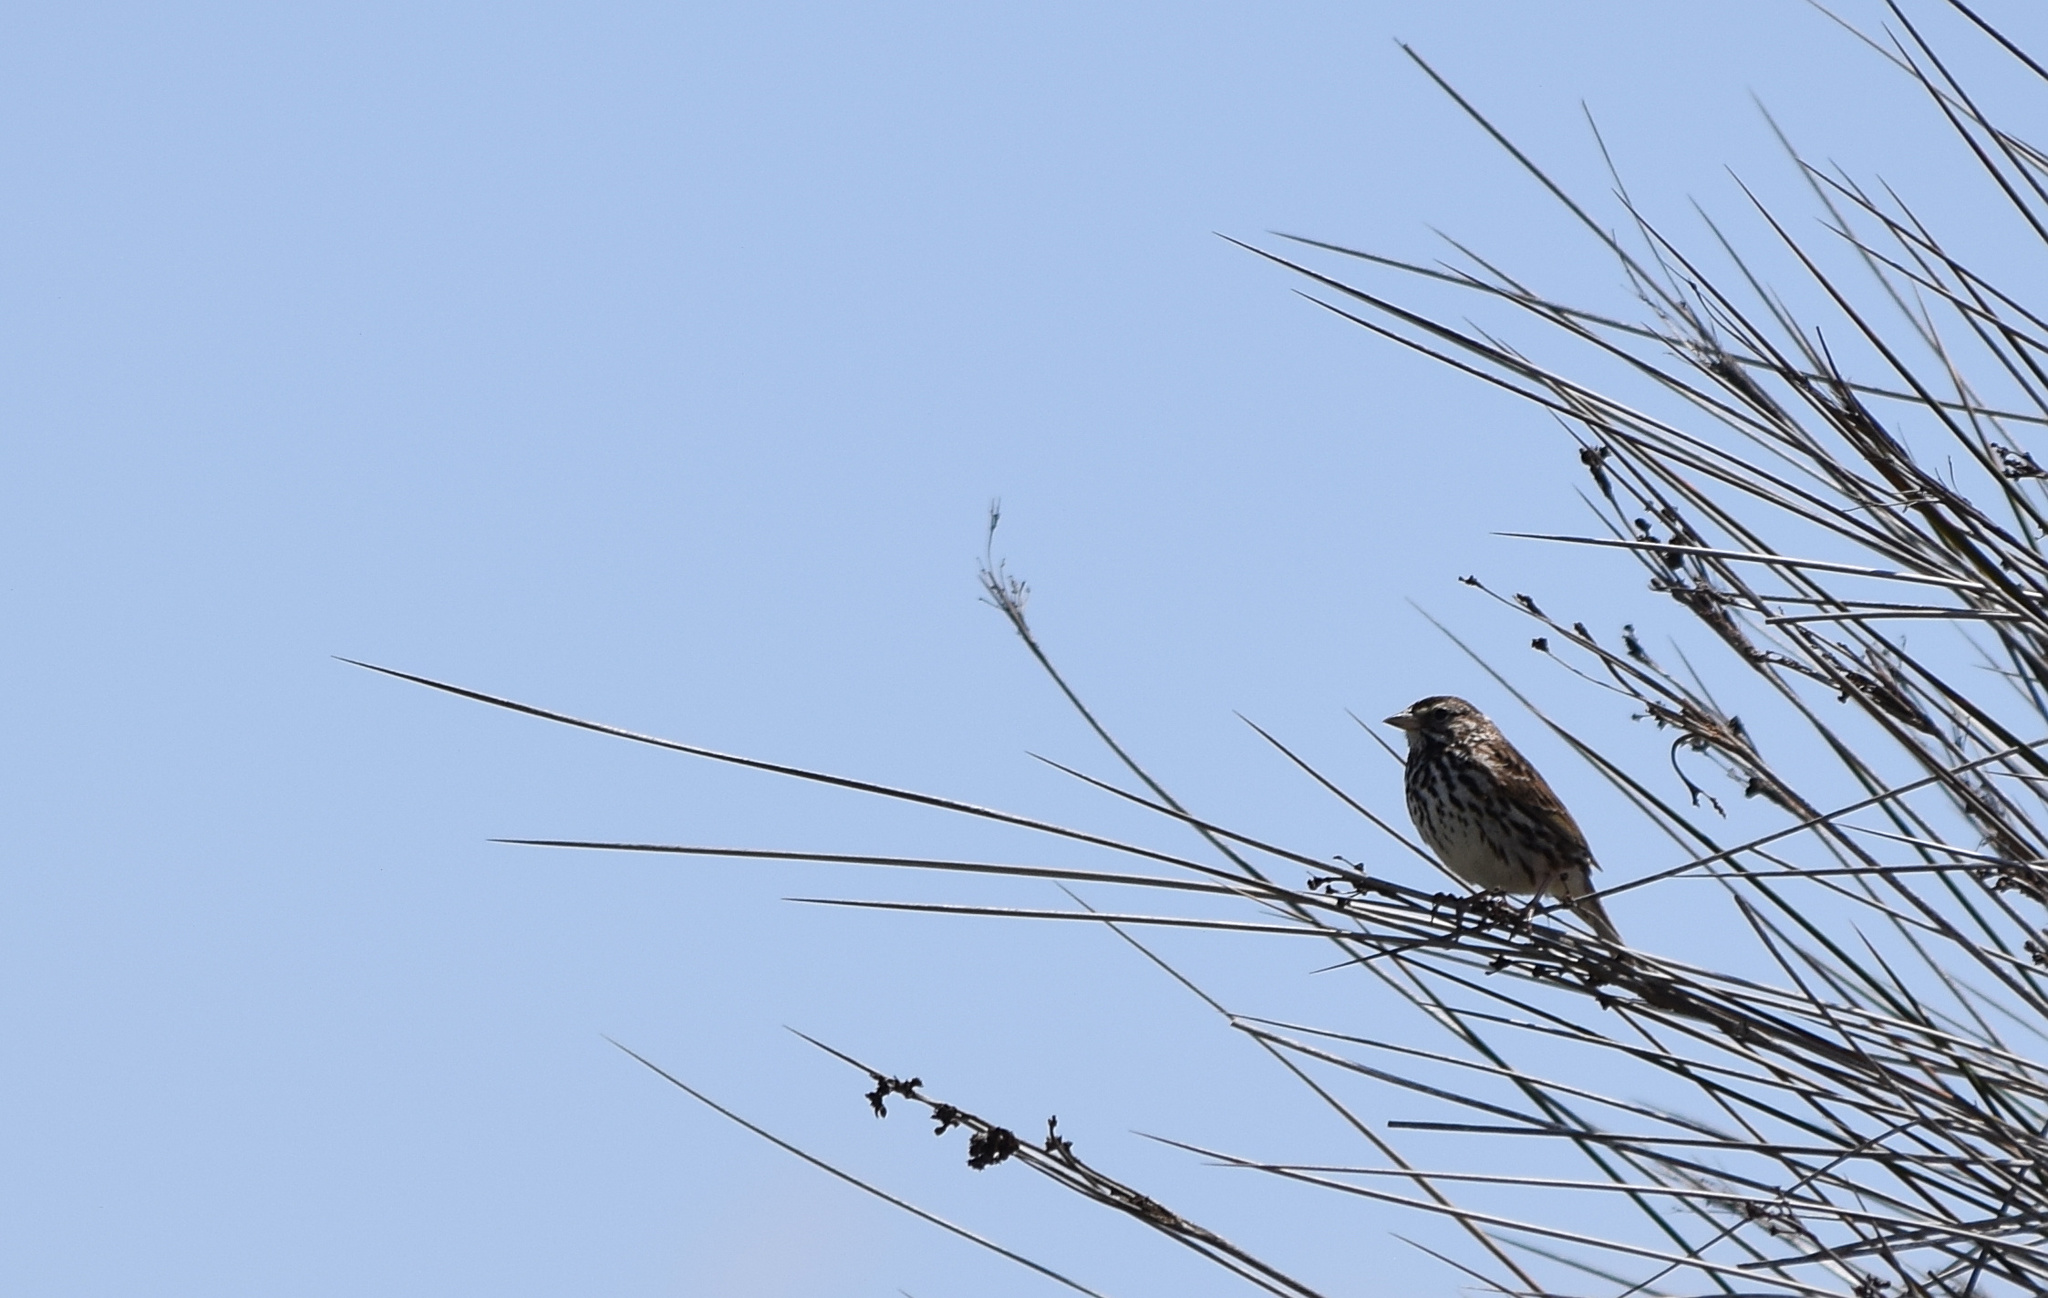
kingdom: Animalia
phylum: Chordata
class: Aves
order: Passeriformes
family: Passerellidae
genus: Melospiza
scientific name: Melospiza melodia
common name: Song sparrow
